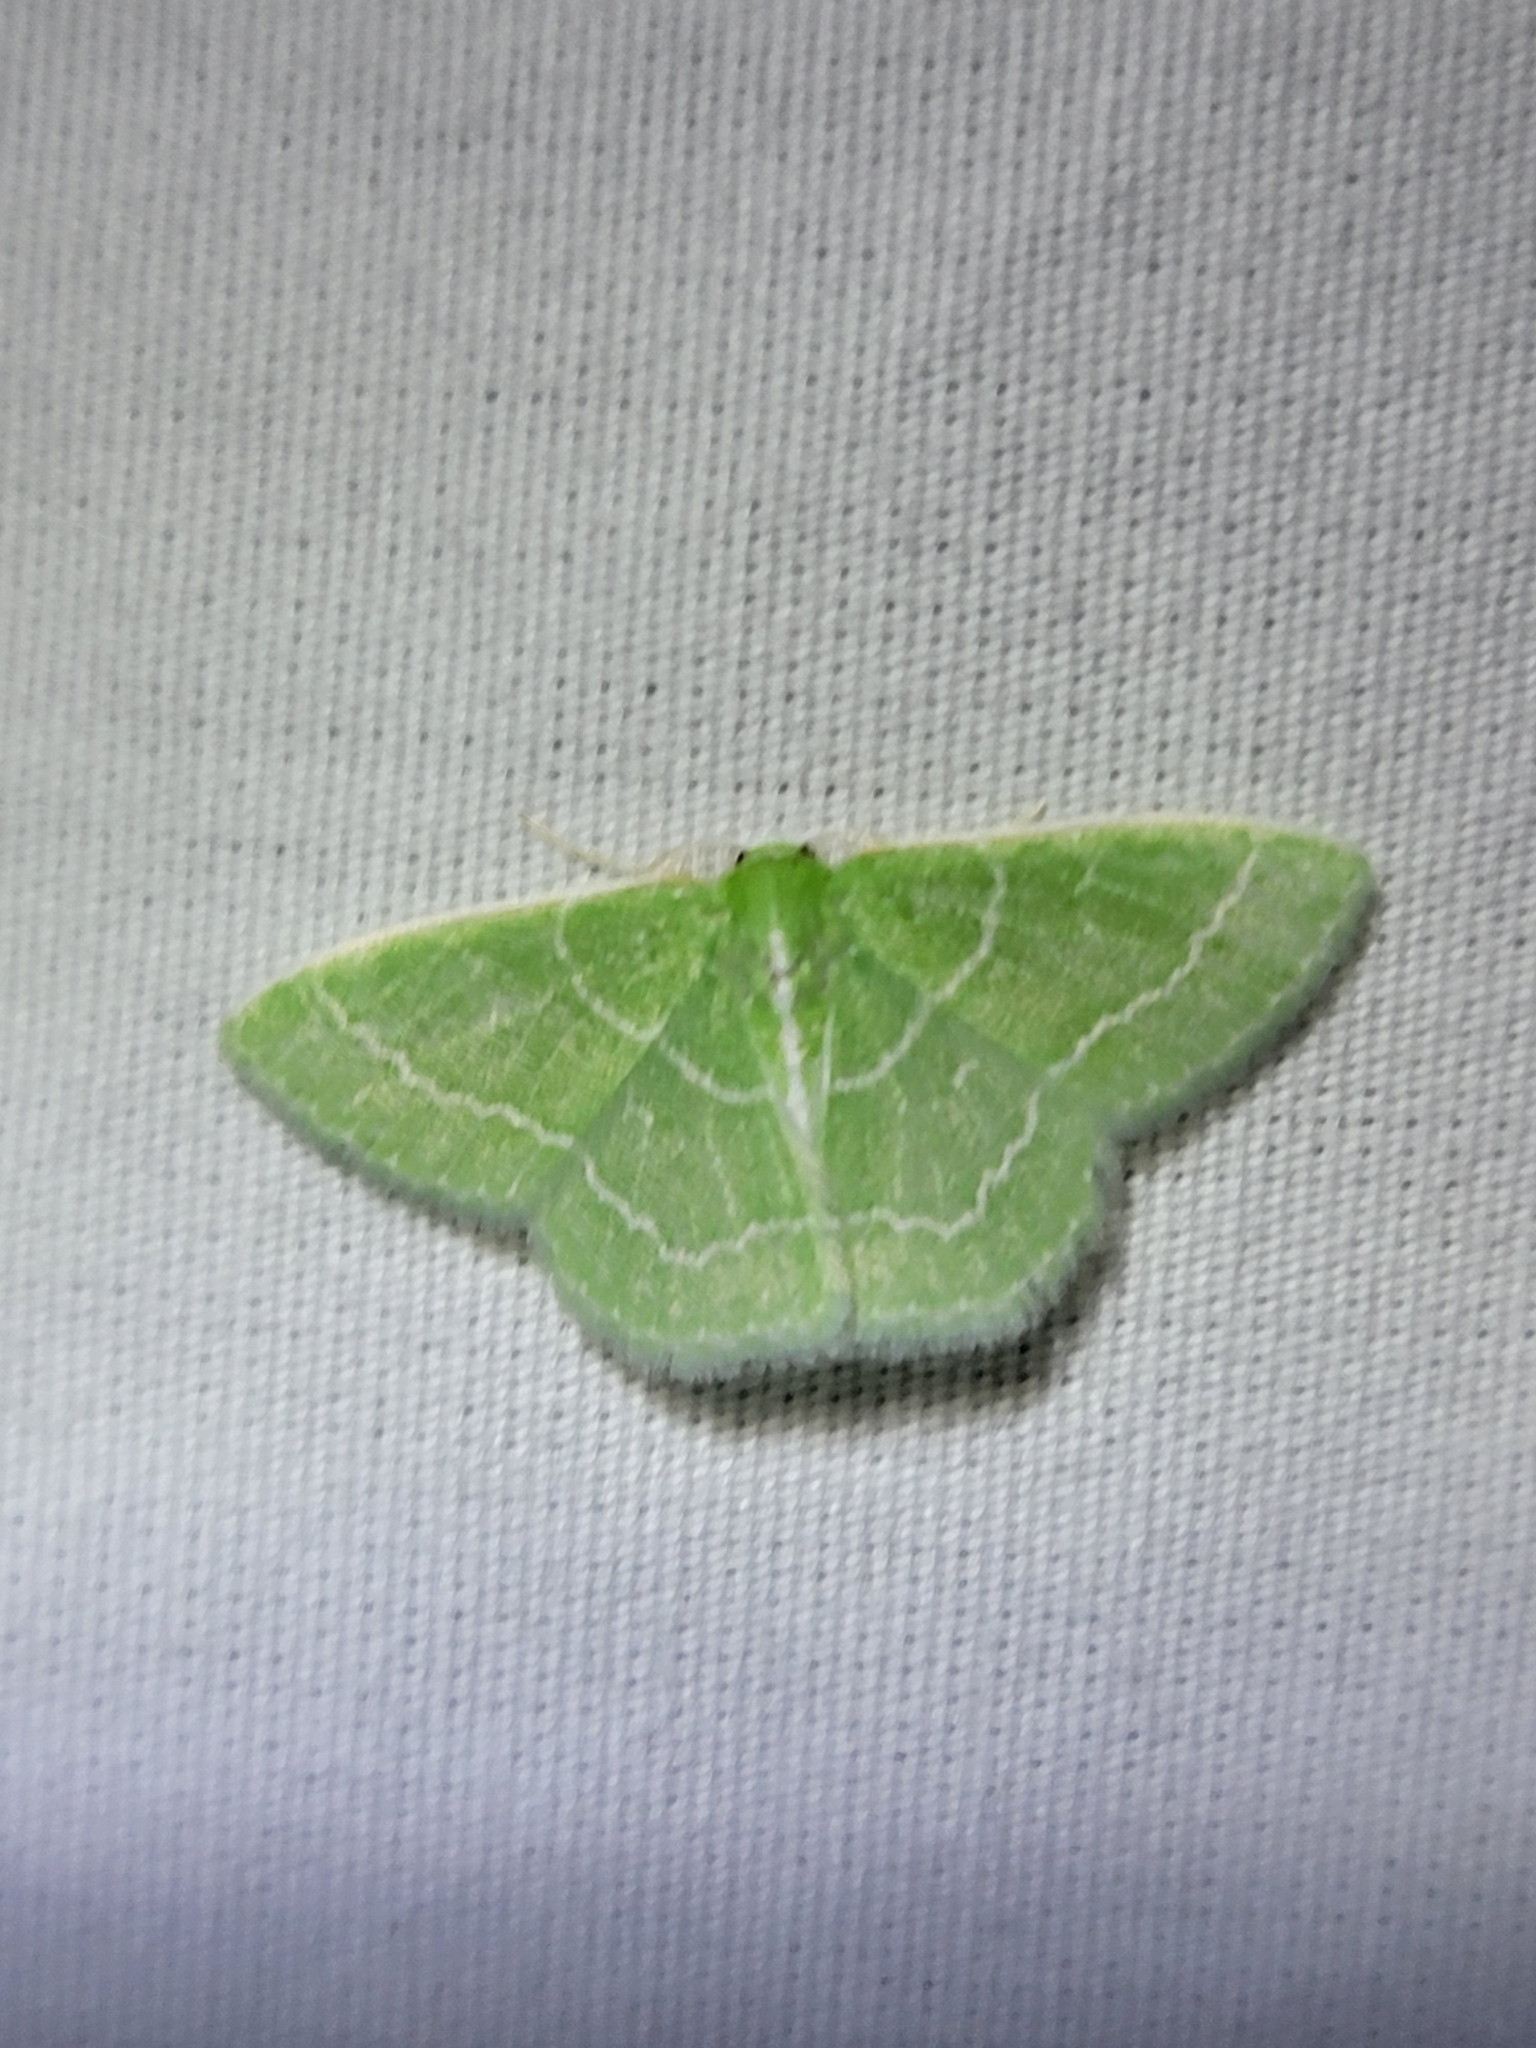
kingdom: Animalia
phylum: Arthropoda
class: Insecta
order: Lepidoptera
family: Geometridae
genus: Synchlora
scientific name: Synchlora aerata
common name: Wavy-lined emerald
